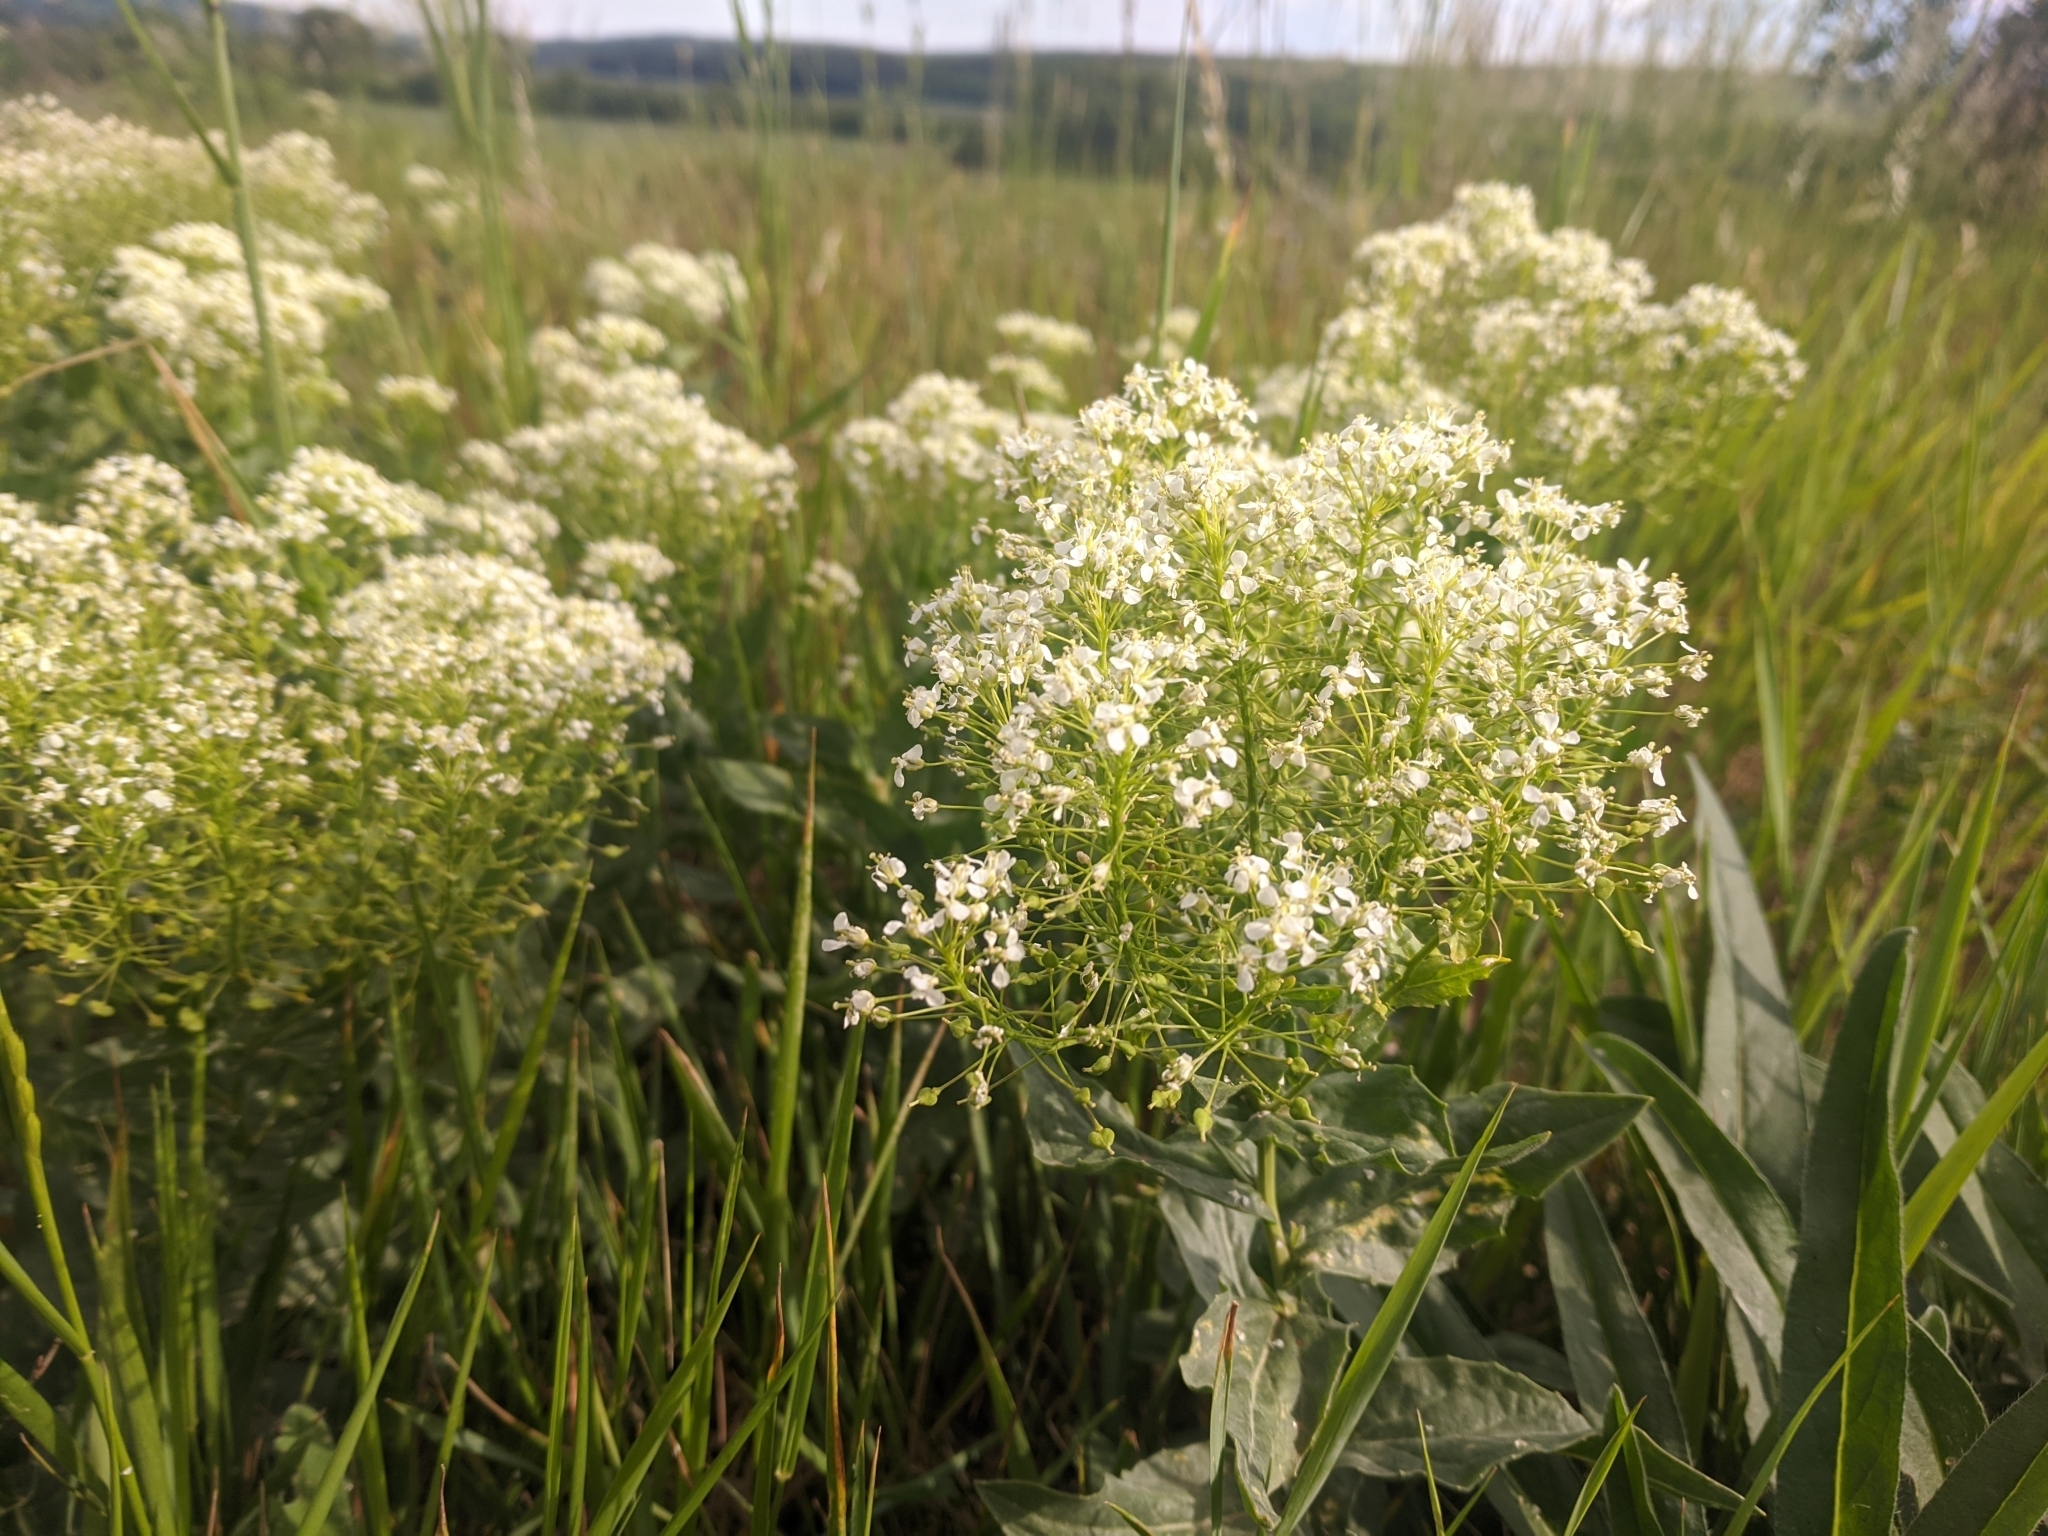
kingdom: Plantae
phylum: Tracheophyta
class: Magnoliopsida
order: Brassicales
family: Brassicaceae
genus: Lepidium
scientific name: Lepidium draba
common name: Hoary cress
